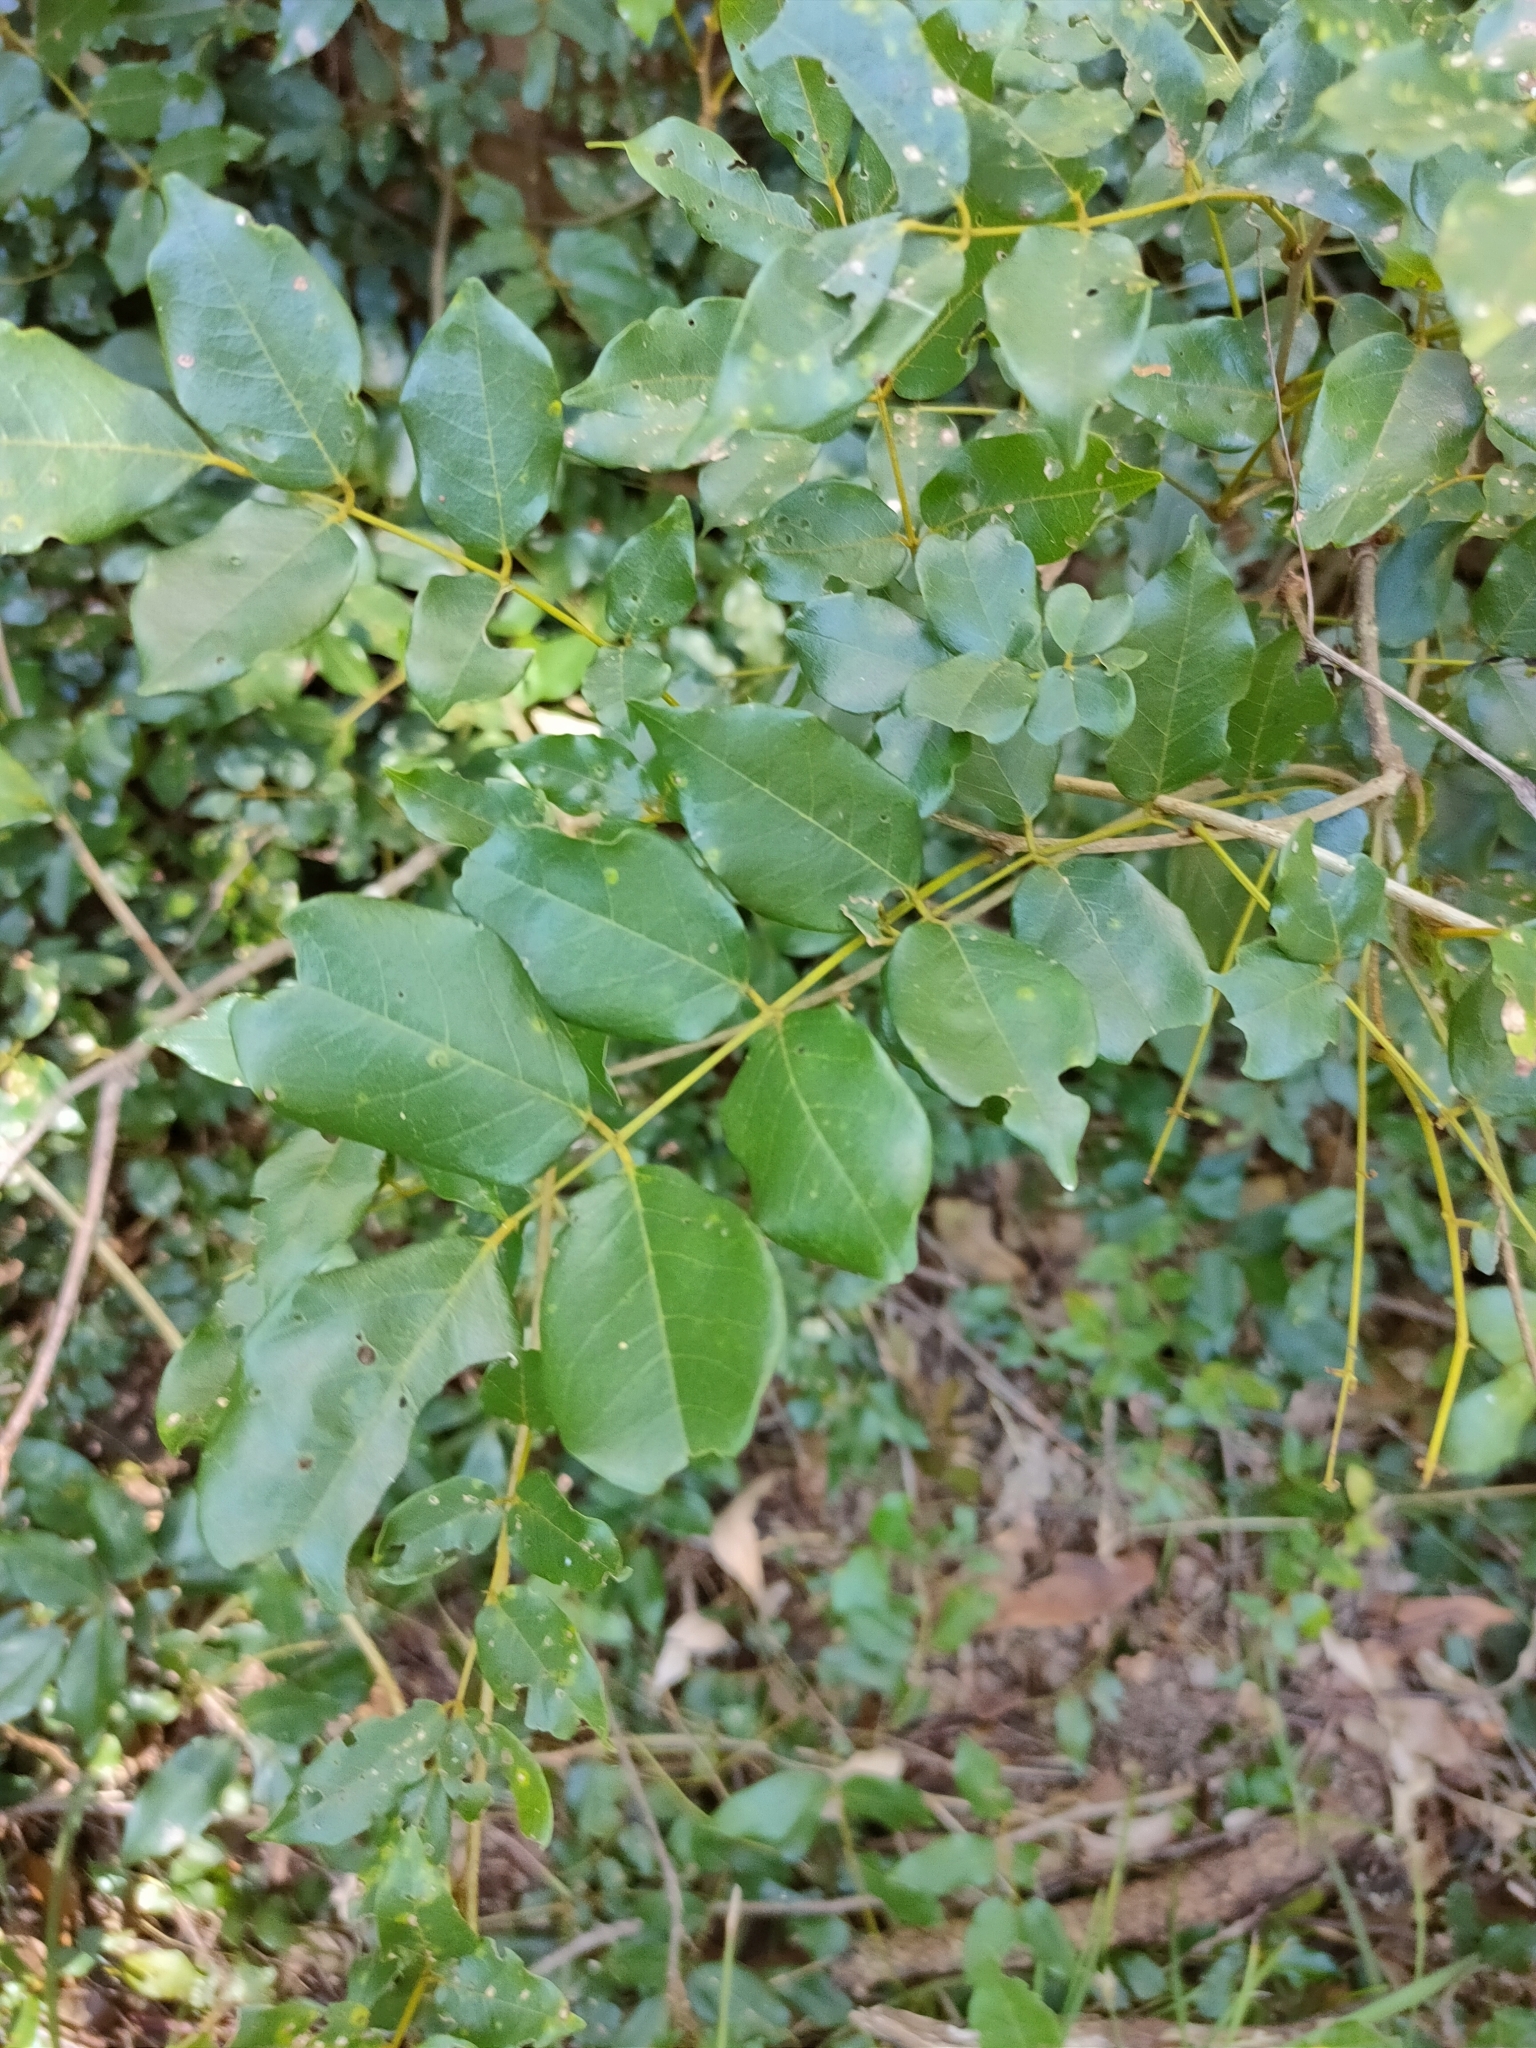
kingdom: Plantae
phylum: Tracheophyta
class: Magnoliopsida
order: Fabales
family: Fabaceae
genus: Austrosteenisia
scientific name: Austrosteenisia blackii
